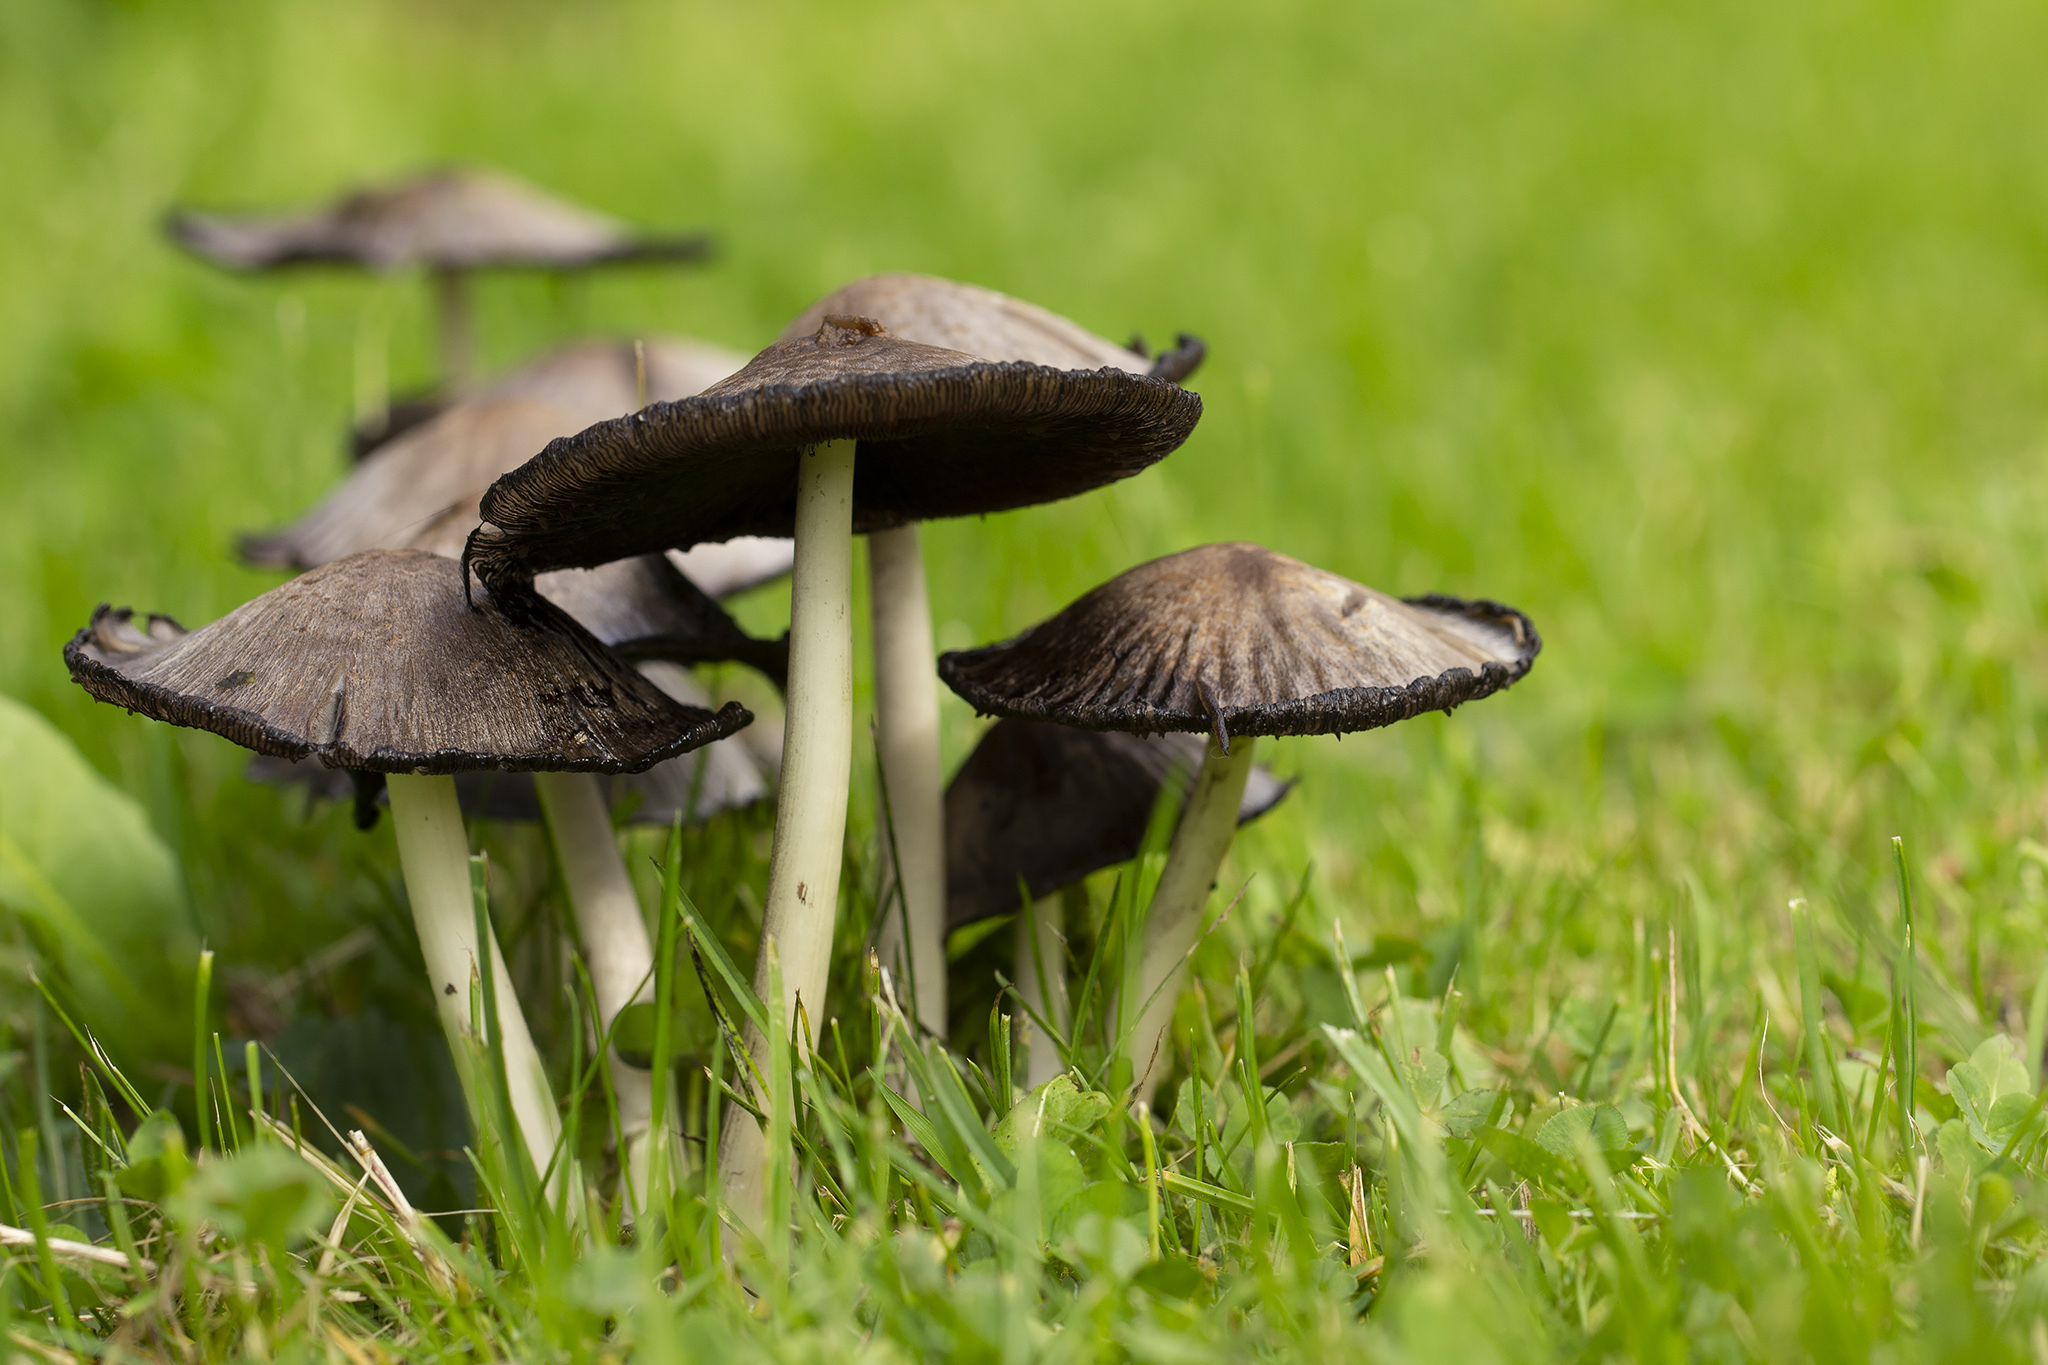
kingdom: Fungi
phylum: Basidiomycota
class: Agaricomycetes
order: Agaricales
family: Psathyrellaceae
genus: Coprinopsis
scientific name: Coprinopsis atramentaria
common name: Common ink-cap
